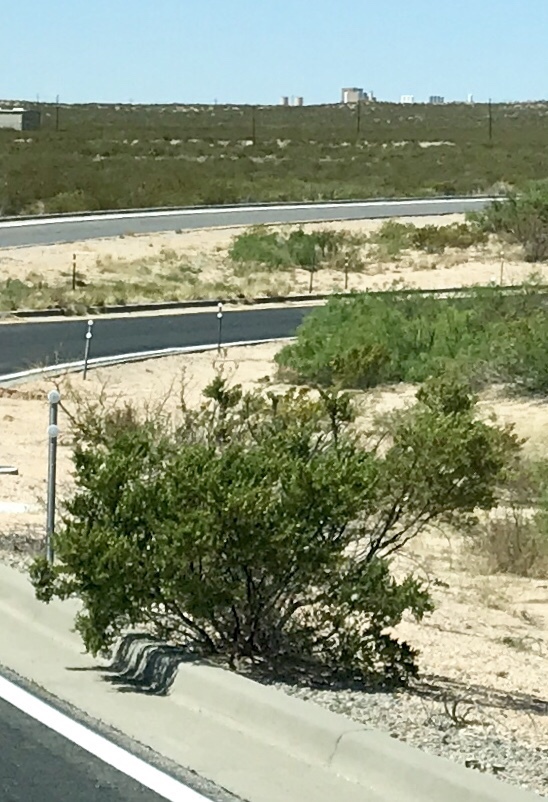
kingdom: Plantae
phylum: Tracheophyta
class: Magnoliopsida
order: Zygophyllales
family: Zygophyllaceae
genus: Larrea
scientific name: Larrea tridentata
